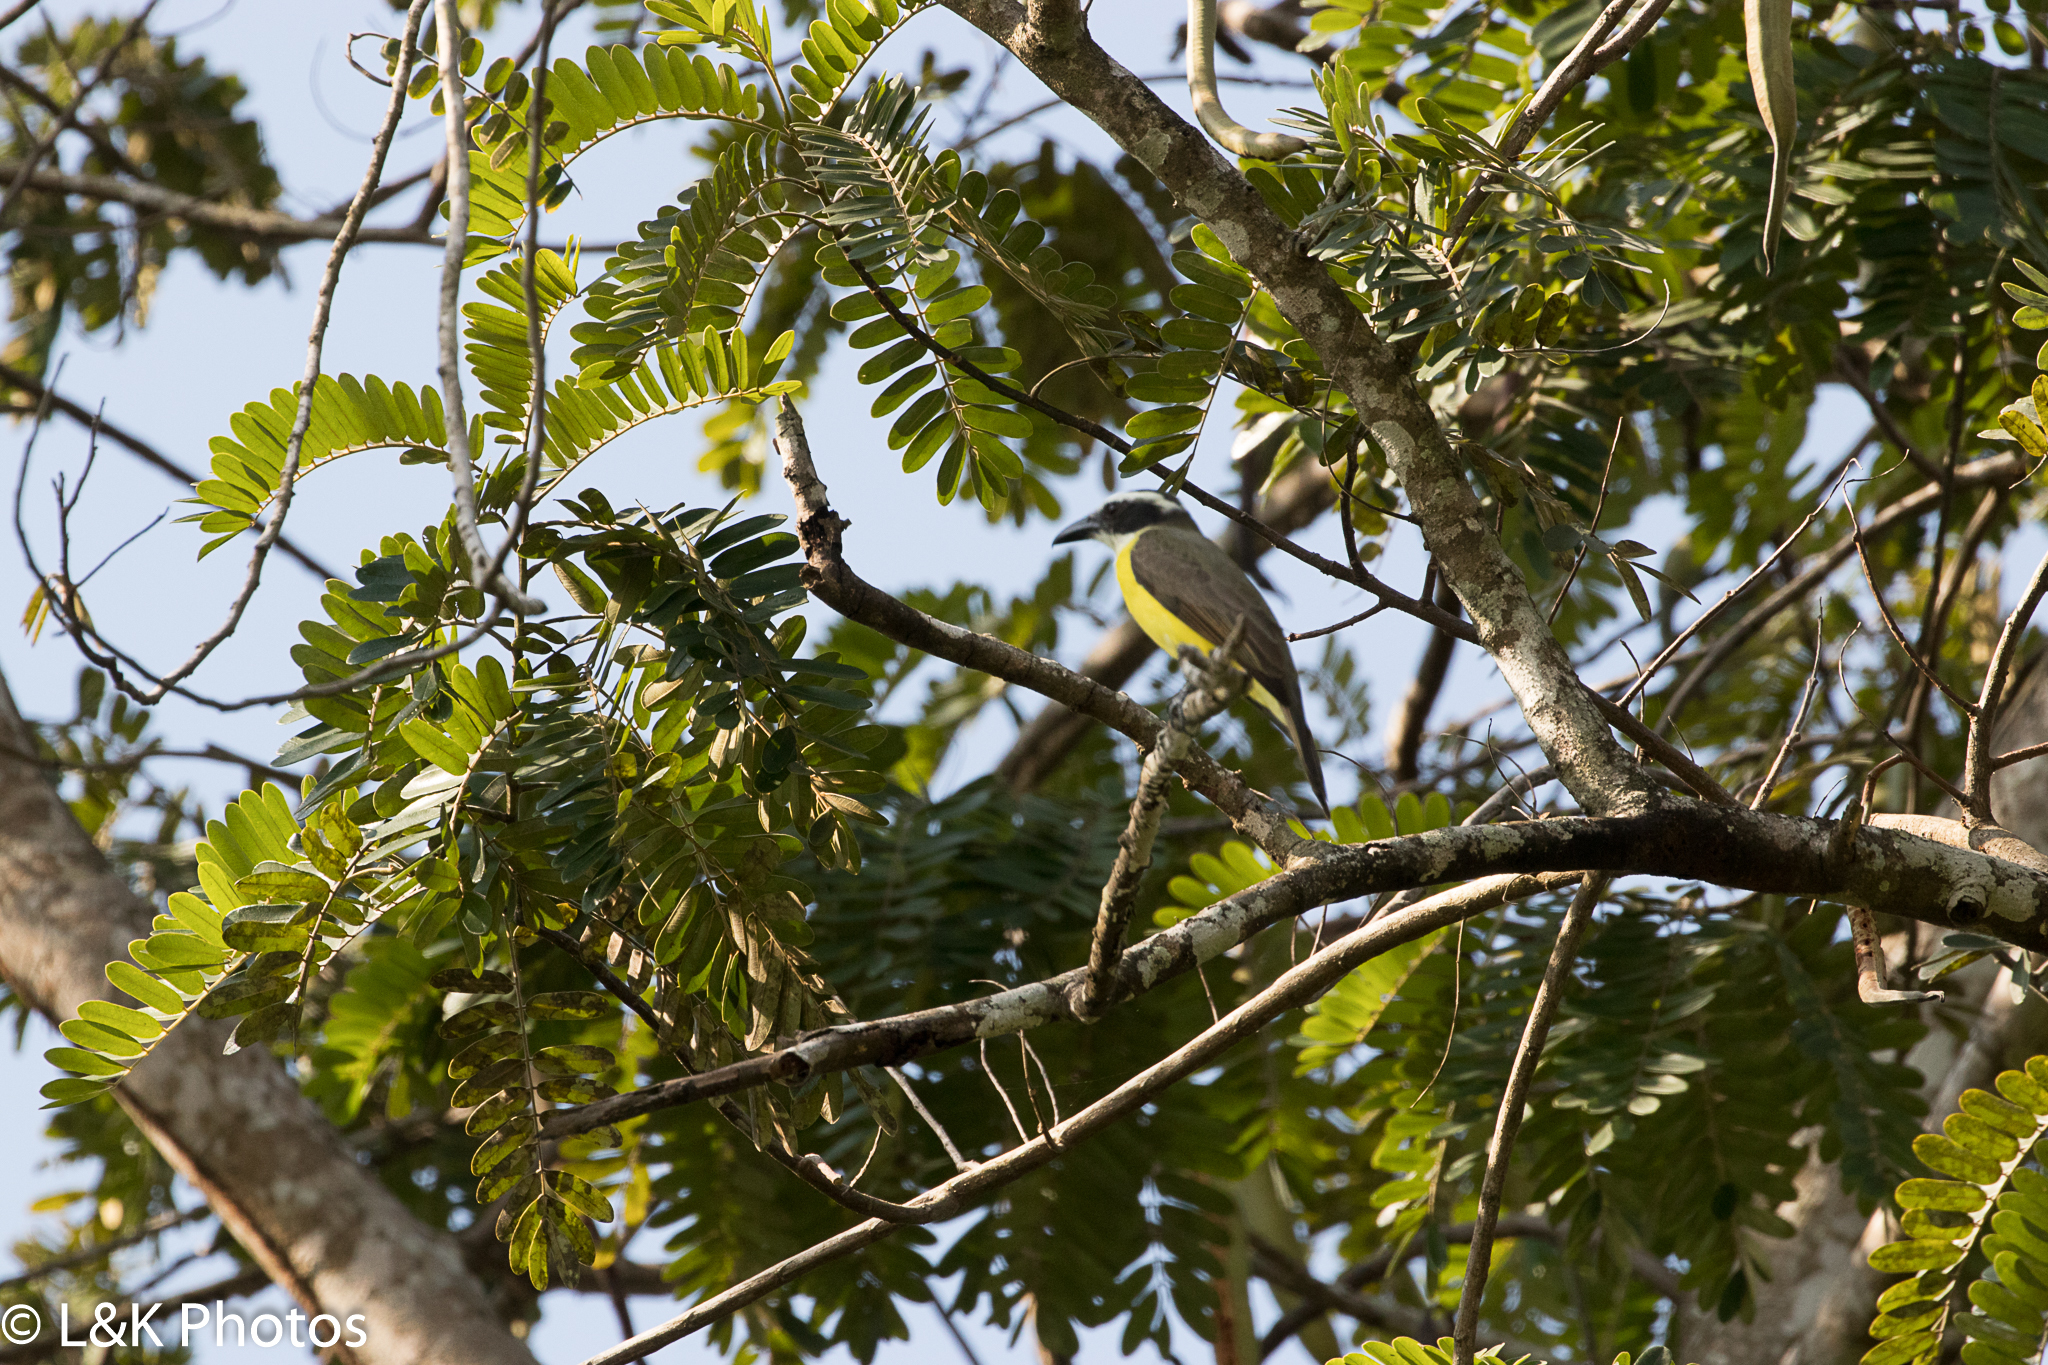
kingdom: Animalia
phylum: Chordata
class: Aves
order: Passeriformes
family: Tyrannidae
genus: Megarynchus
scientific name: Megarynchus pitangua
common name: Boat-billed flycatcher
